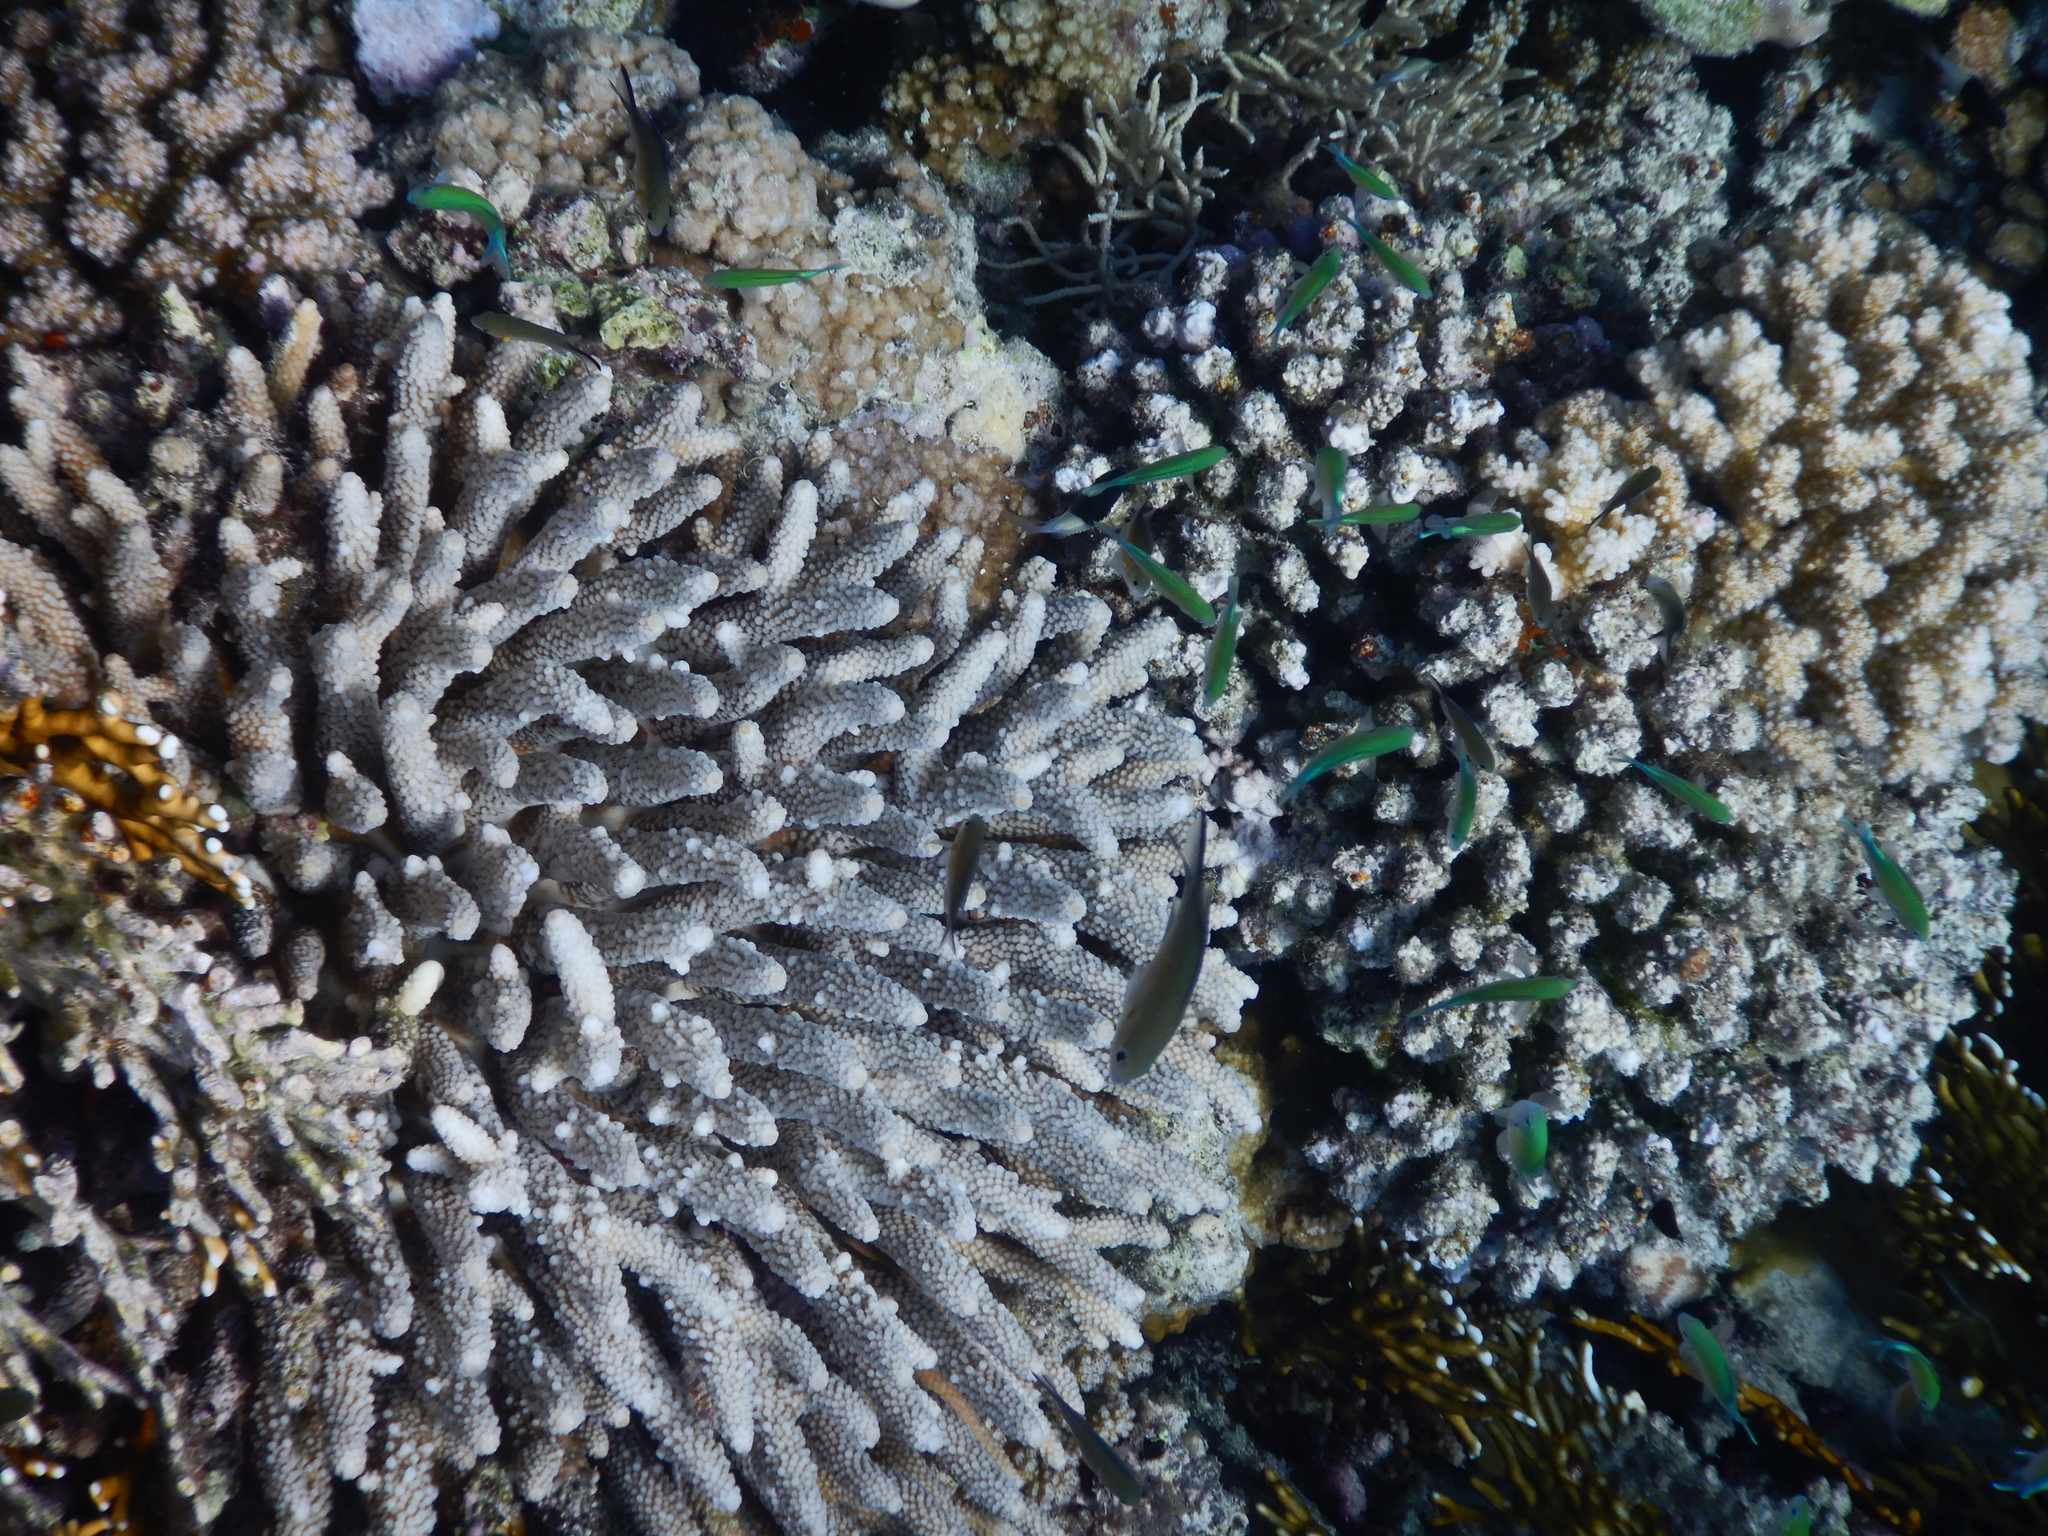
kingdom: Animalia
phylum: Cnidaria
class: Anthozoa
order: Scleractinia
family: Acroporidae
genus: Acropora
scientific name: Acropora gemmifera
